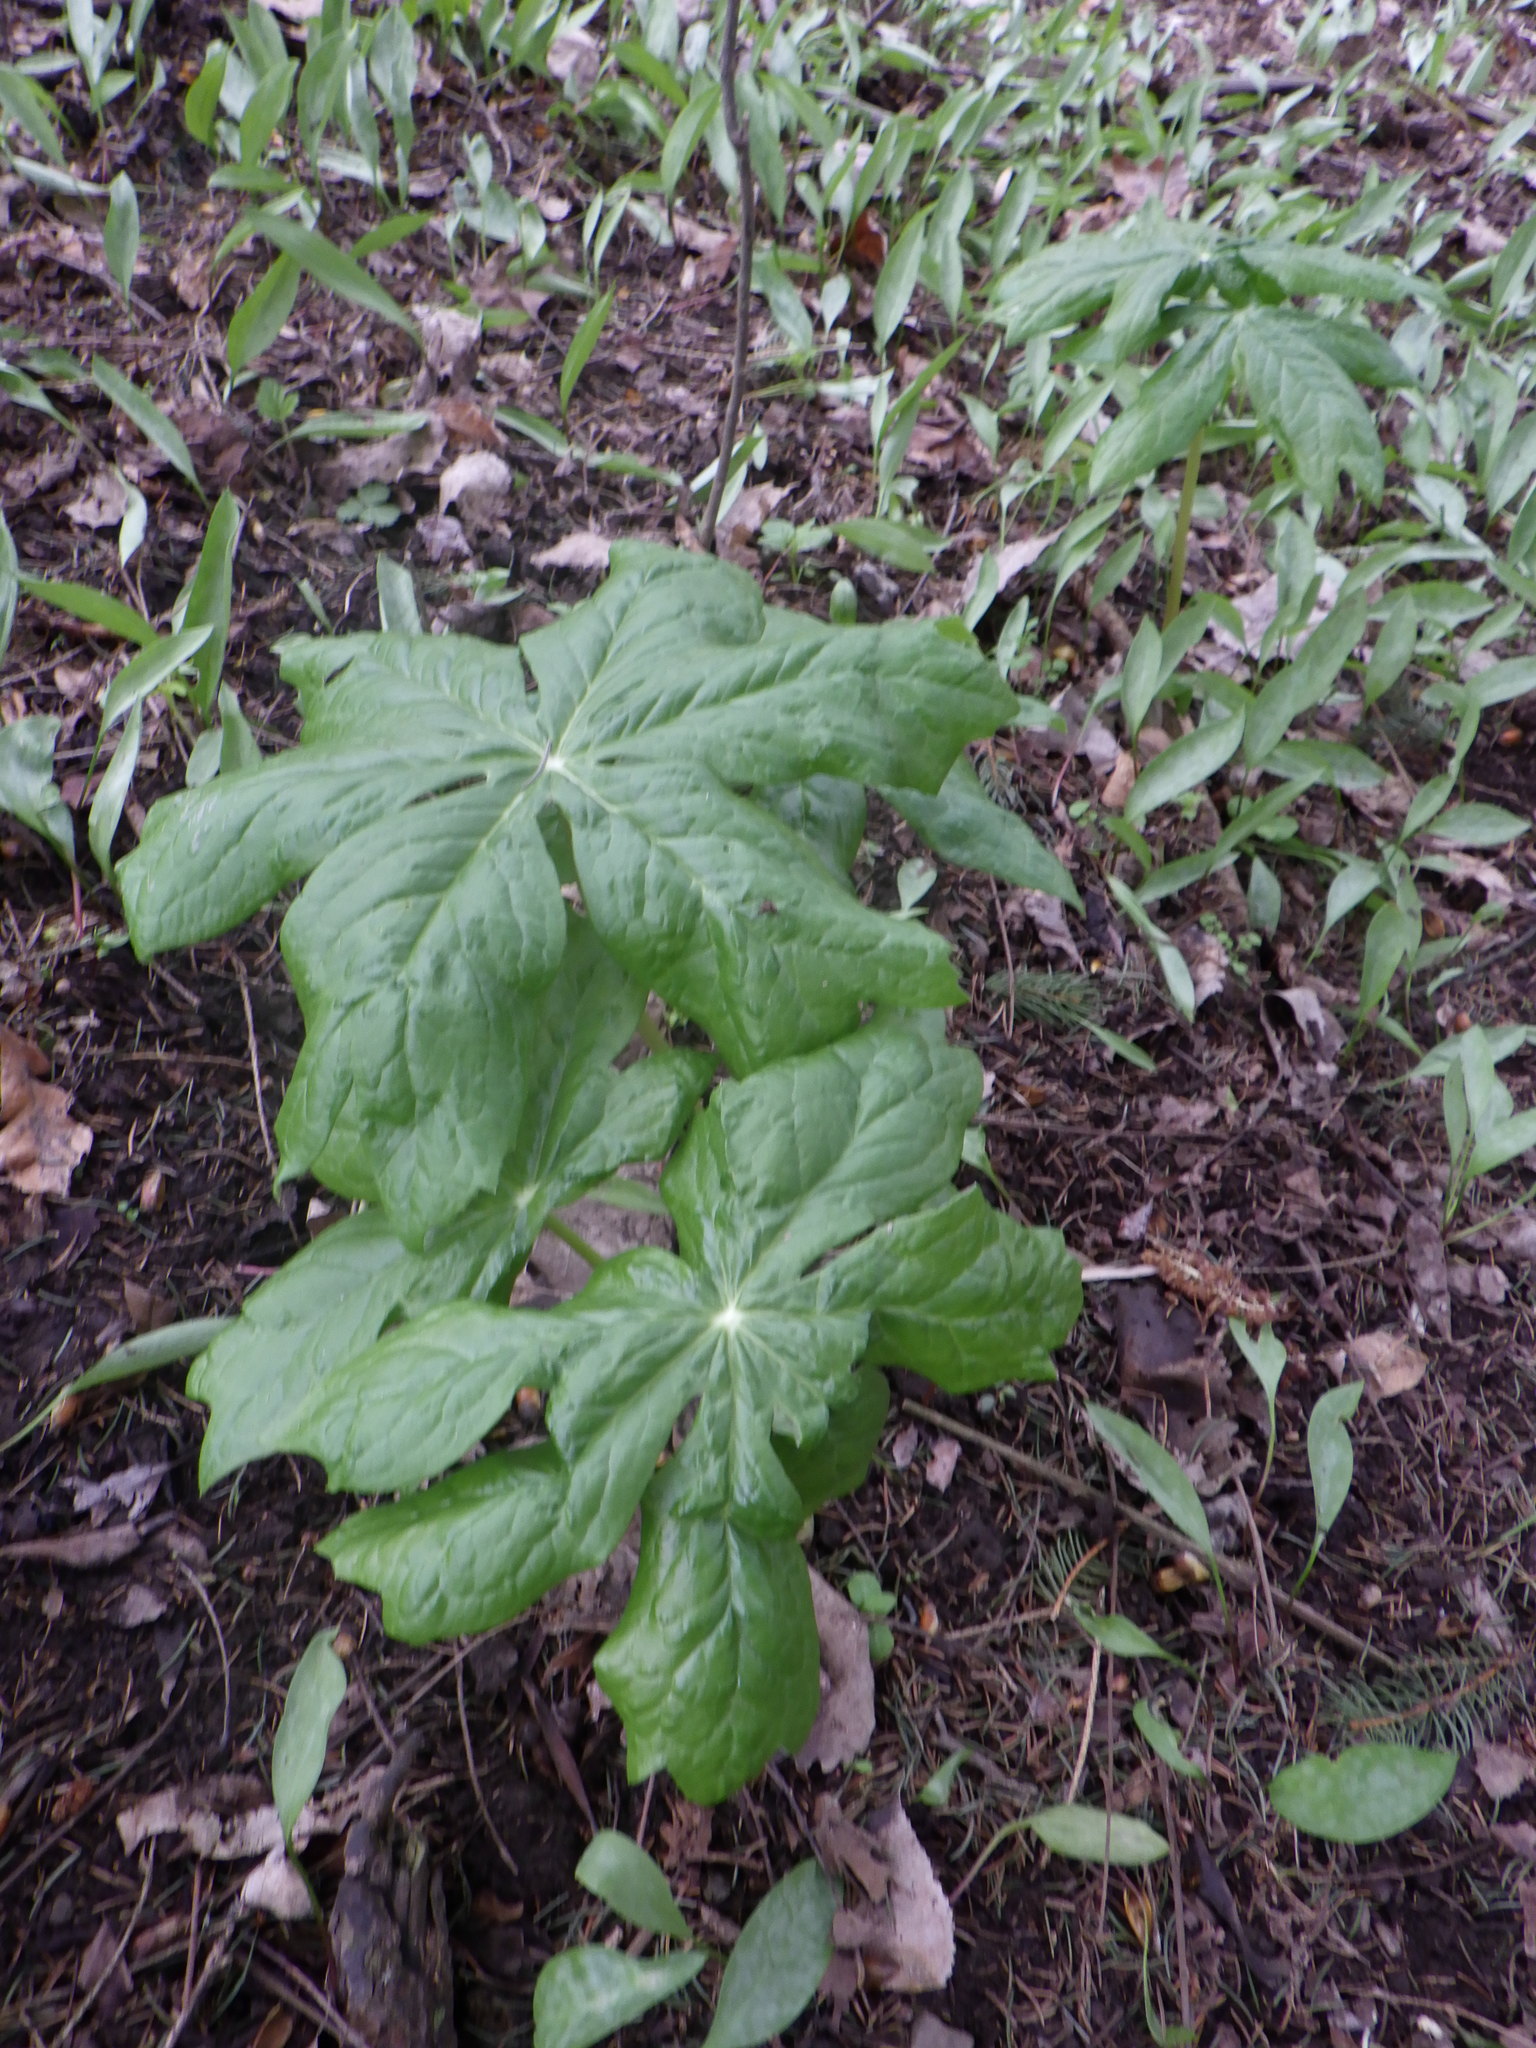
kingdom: Plantae
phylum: Tracheophyta
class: Magnoliopsida
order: Ranunculales
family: Berberidaceae
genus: Podophyllum
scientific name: Podophyllum peltatum
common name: Wild mandrake
